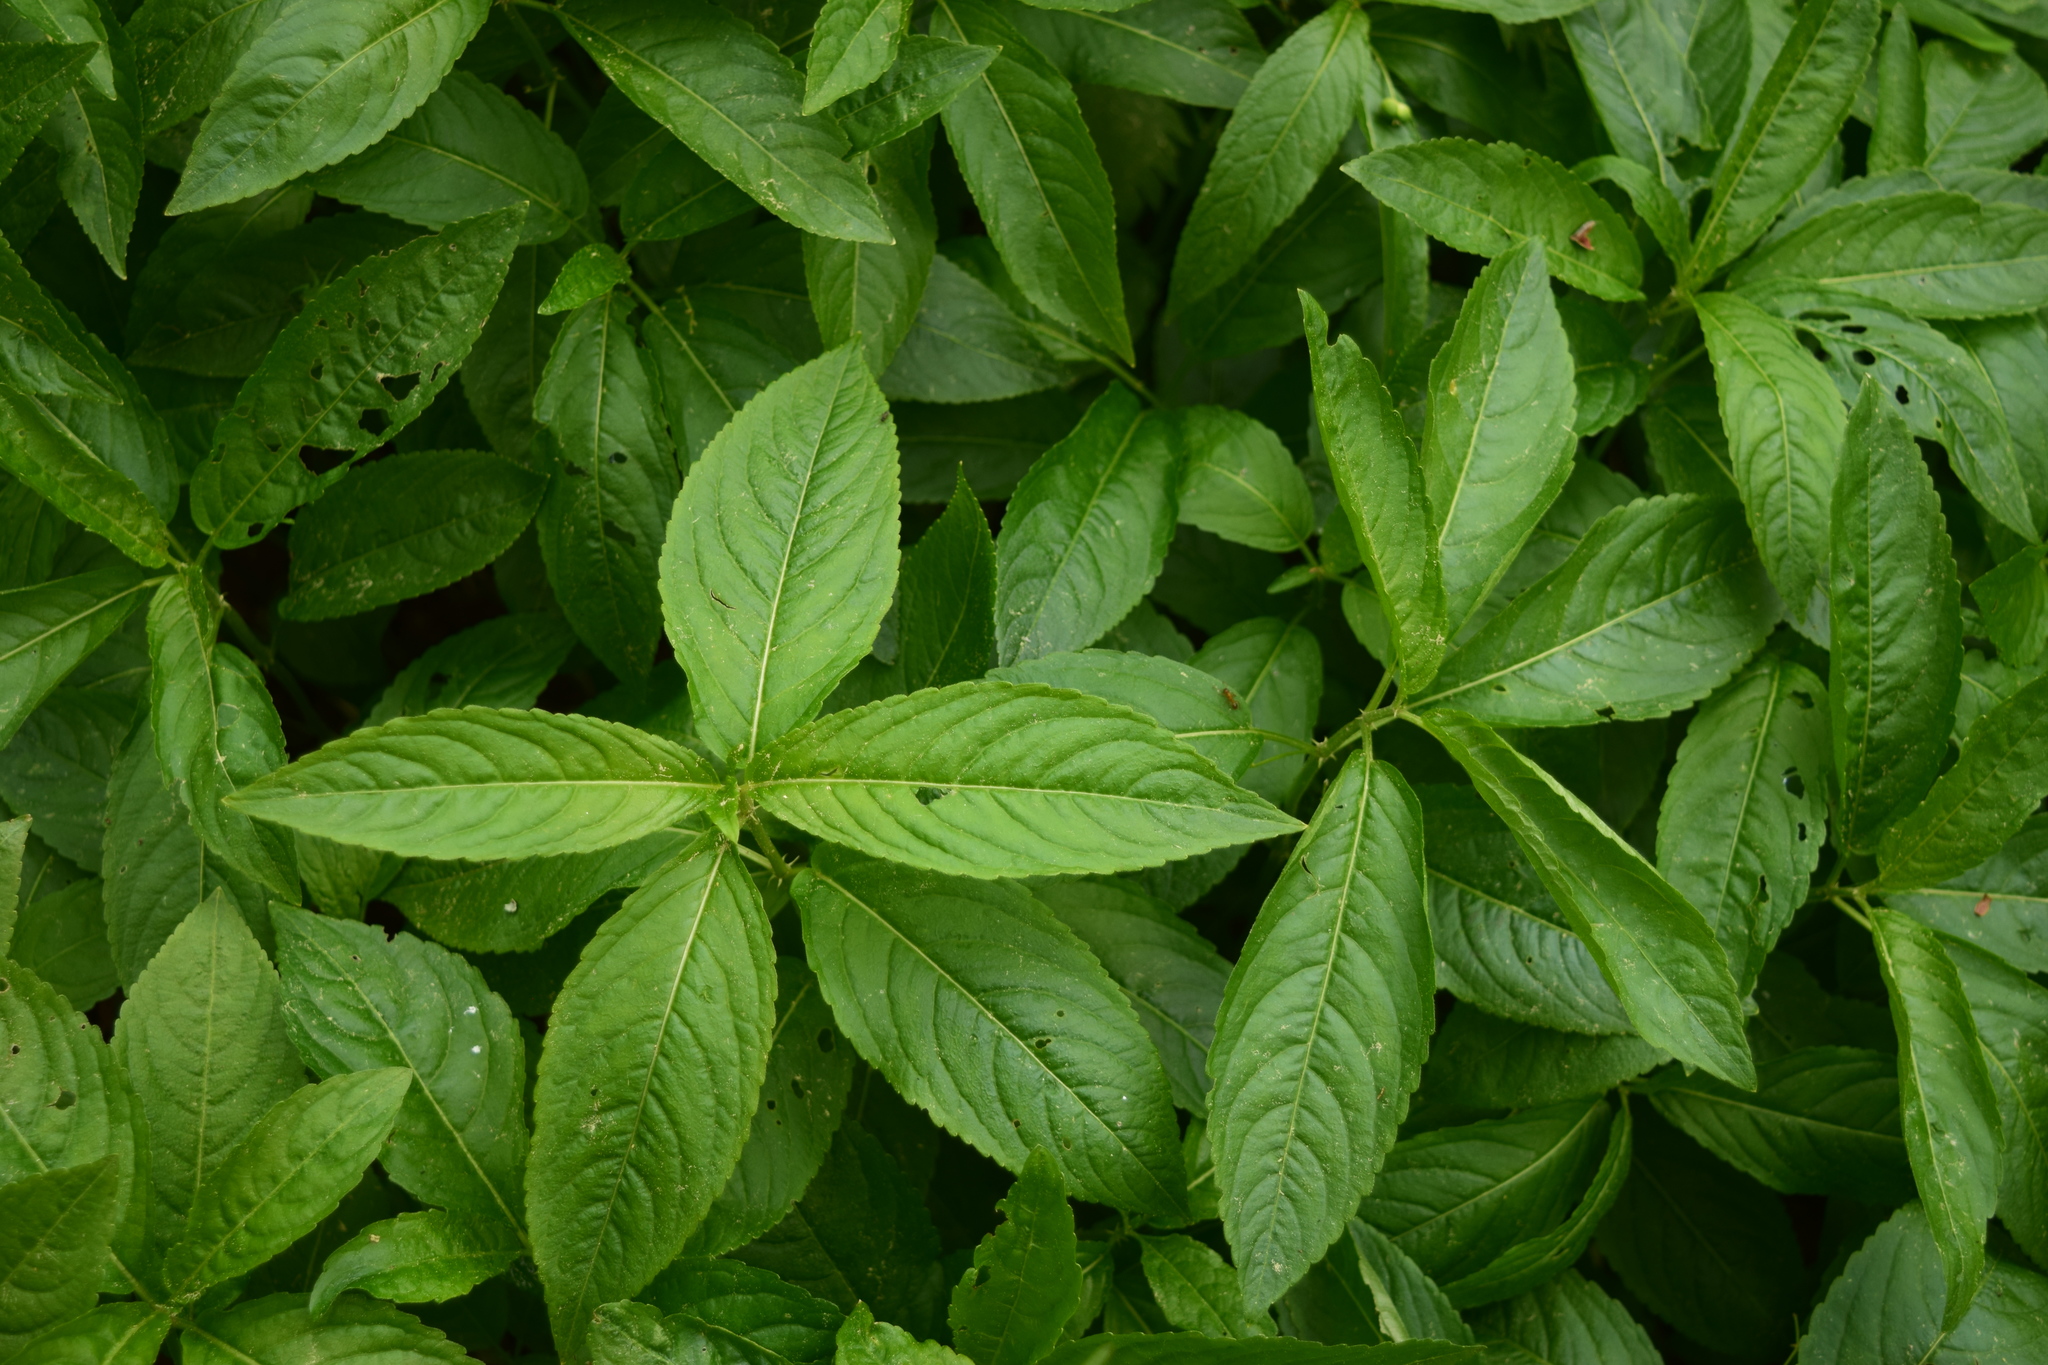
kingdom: Plantae
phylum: Tracheophyta
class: Magnoliopsida
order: Malpighiales
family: Euphorbiaceae
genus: Mercurialis
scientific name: Mercurialis perennis
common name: Dog mercury
